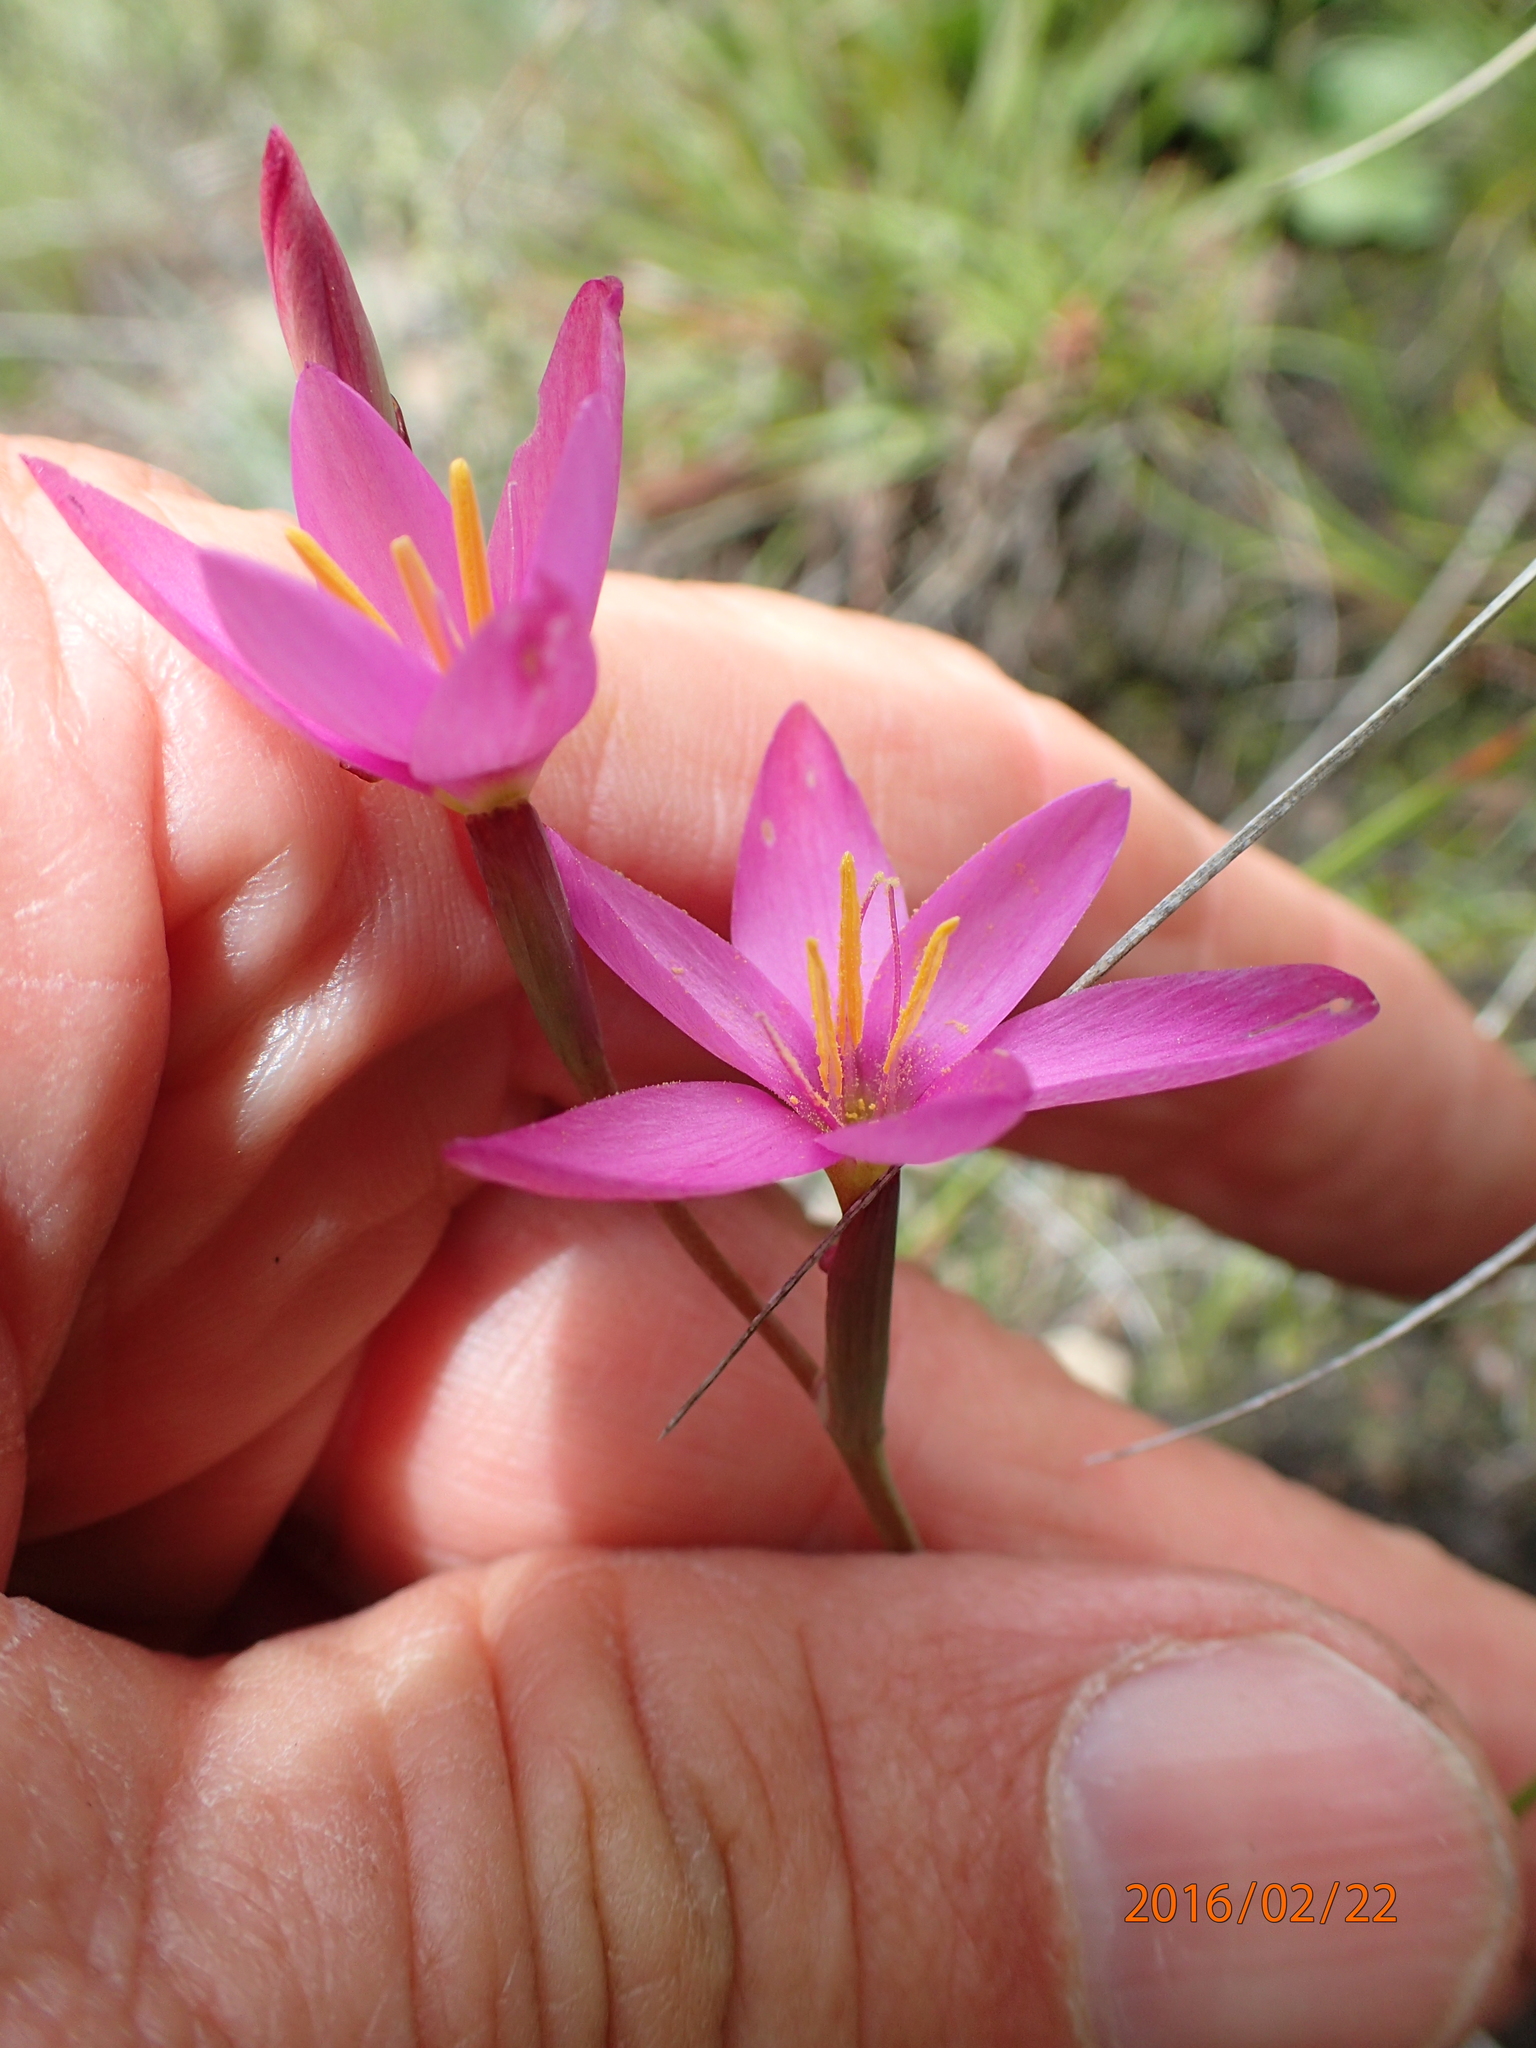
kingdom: Plantae
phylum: Tracheophyta
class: Liliopsida
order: Asparagales
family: Iridaceae
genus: Hesperantha
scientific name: Hesperantha baurii
